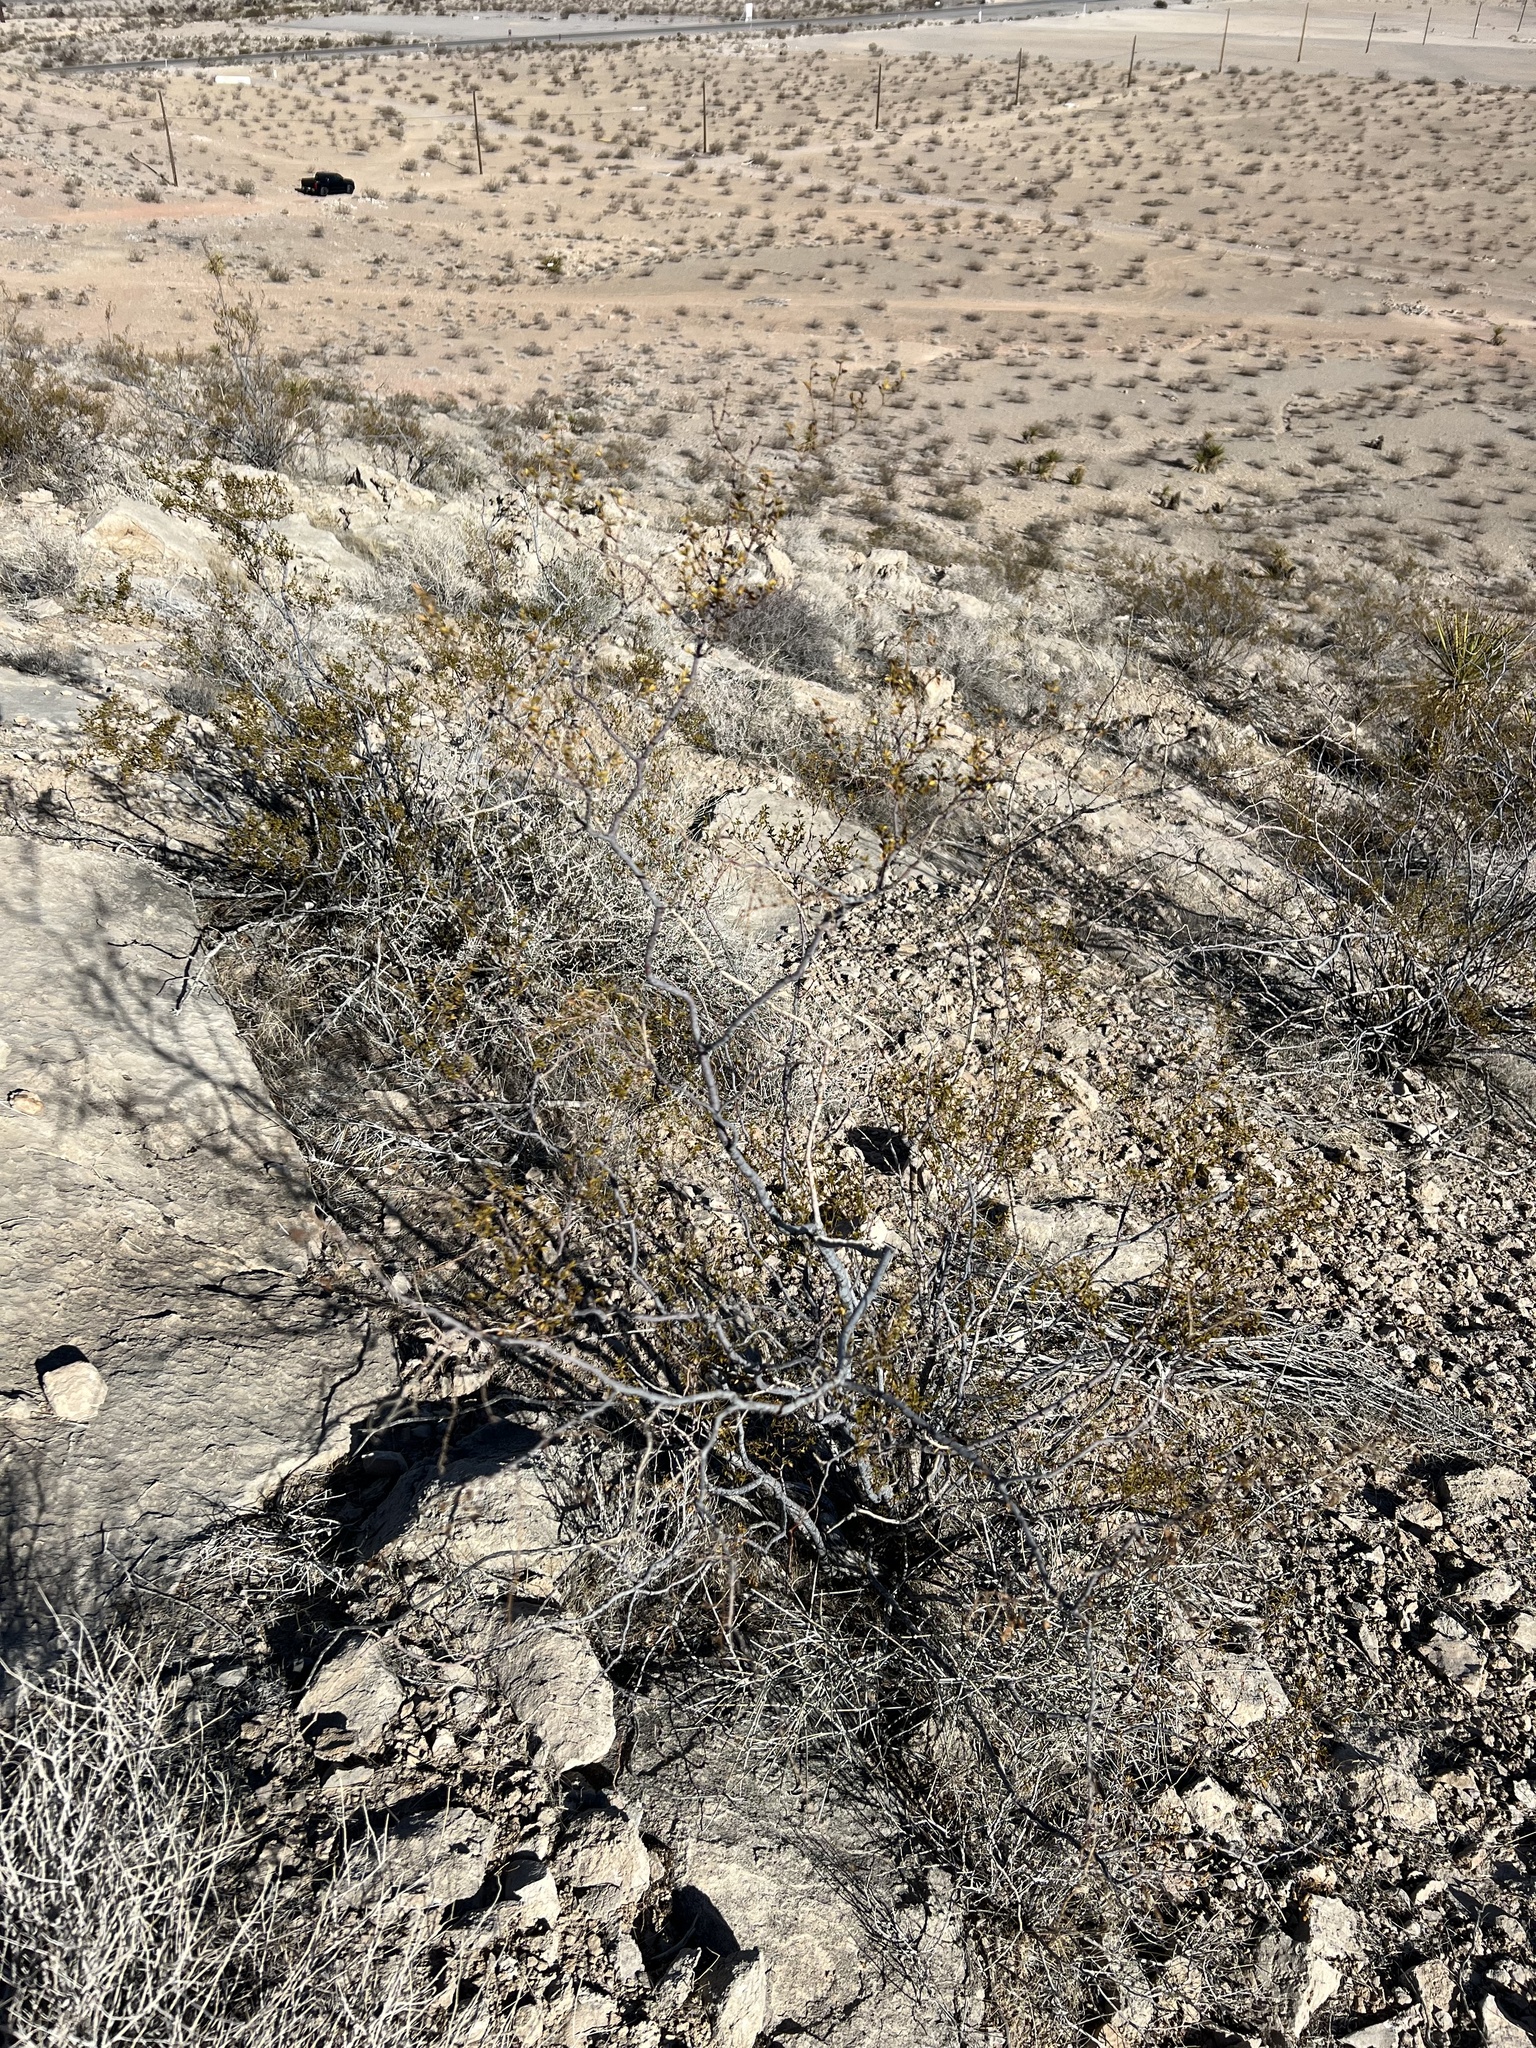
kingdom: Plantae
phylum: Tracheophyta
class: Magnoliopsida
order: Zygophyllales
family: Zygophyllaceae
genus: Larrea
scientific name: Larrea tridentata
